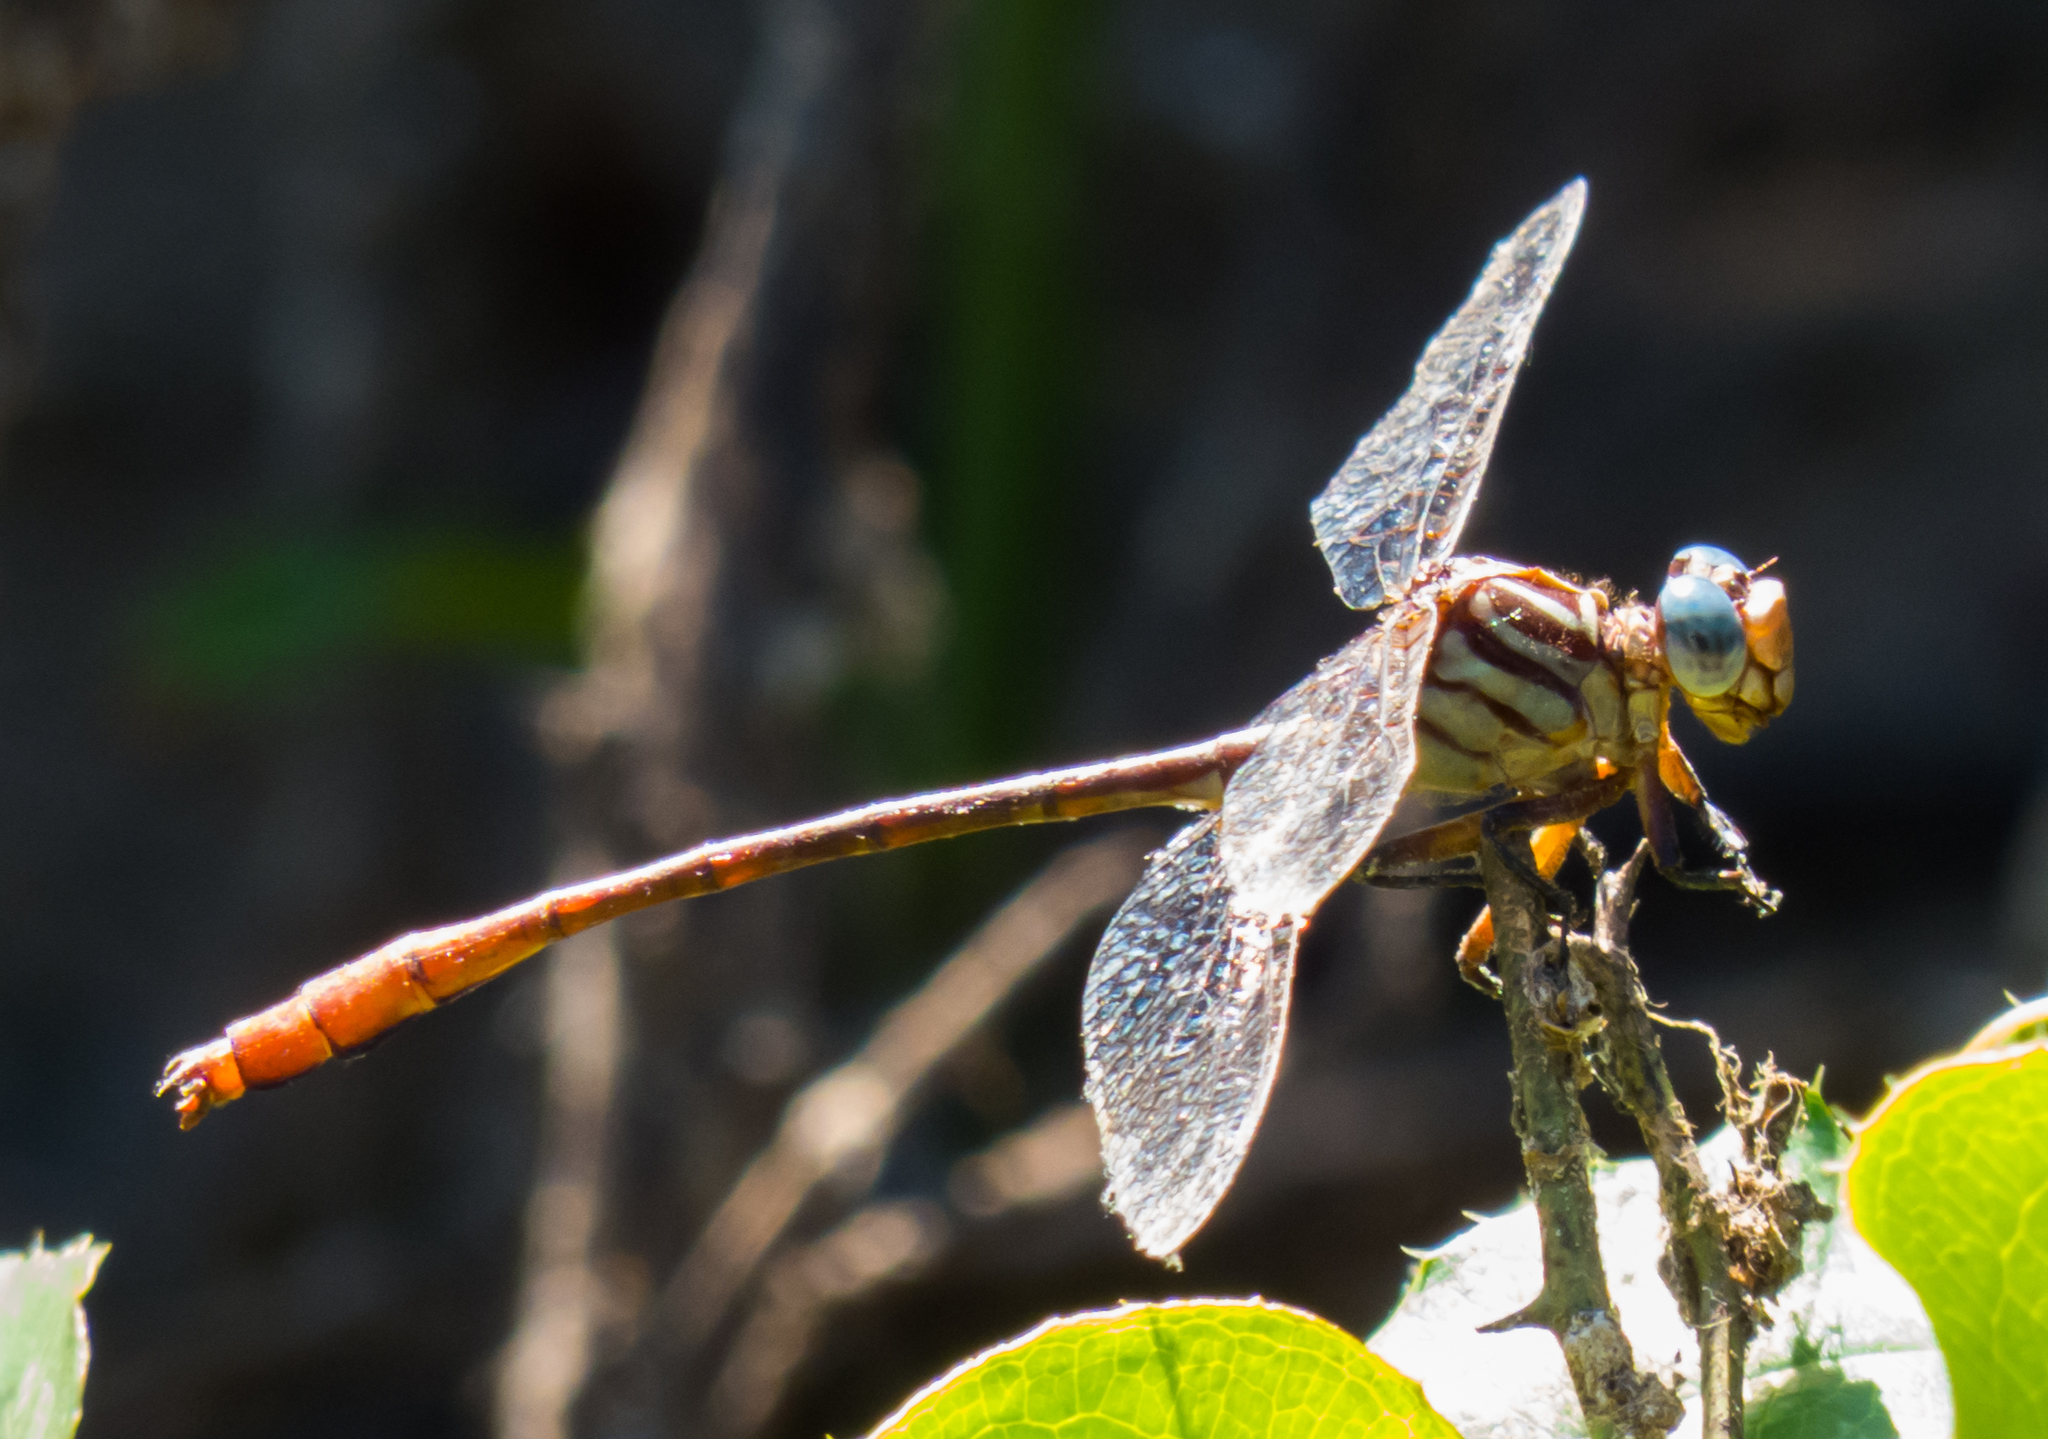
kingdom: Animalia
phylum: Arthropoda
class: Insecta
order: Odonata
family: Gomphidae
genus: Stylurus
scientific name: Stylurus plagiatus
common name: Russet-tipped clubtail
